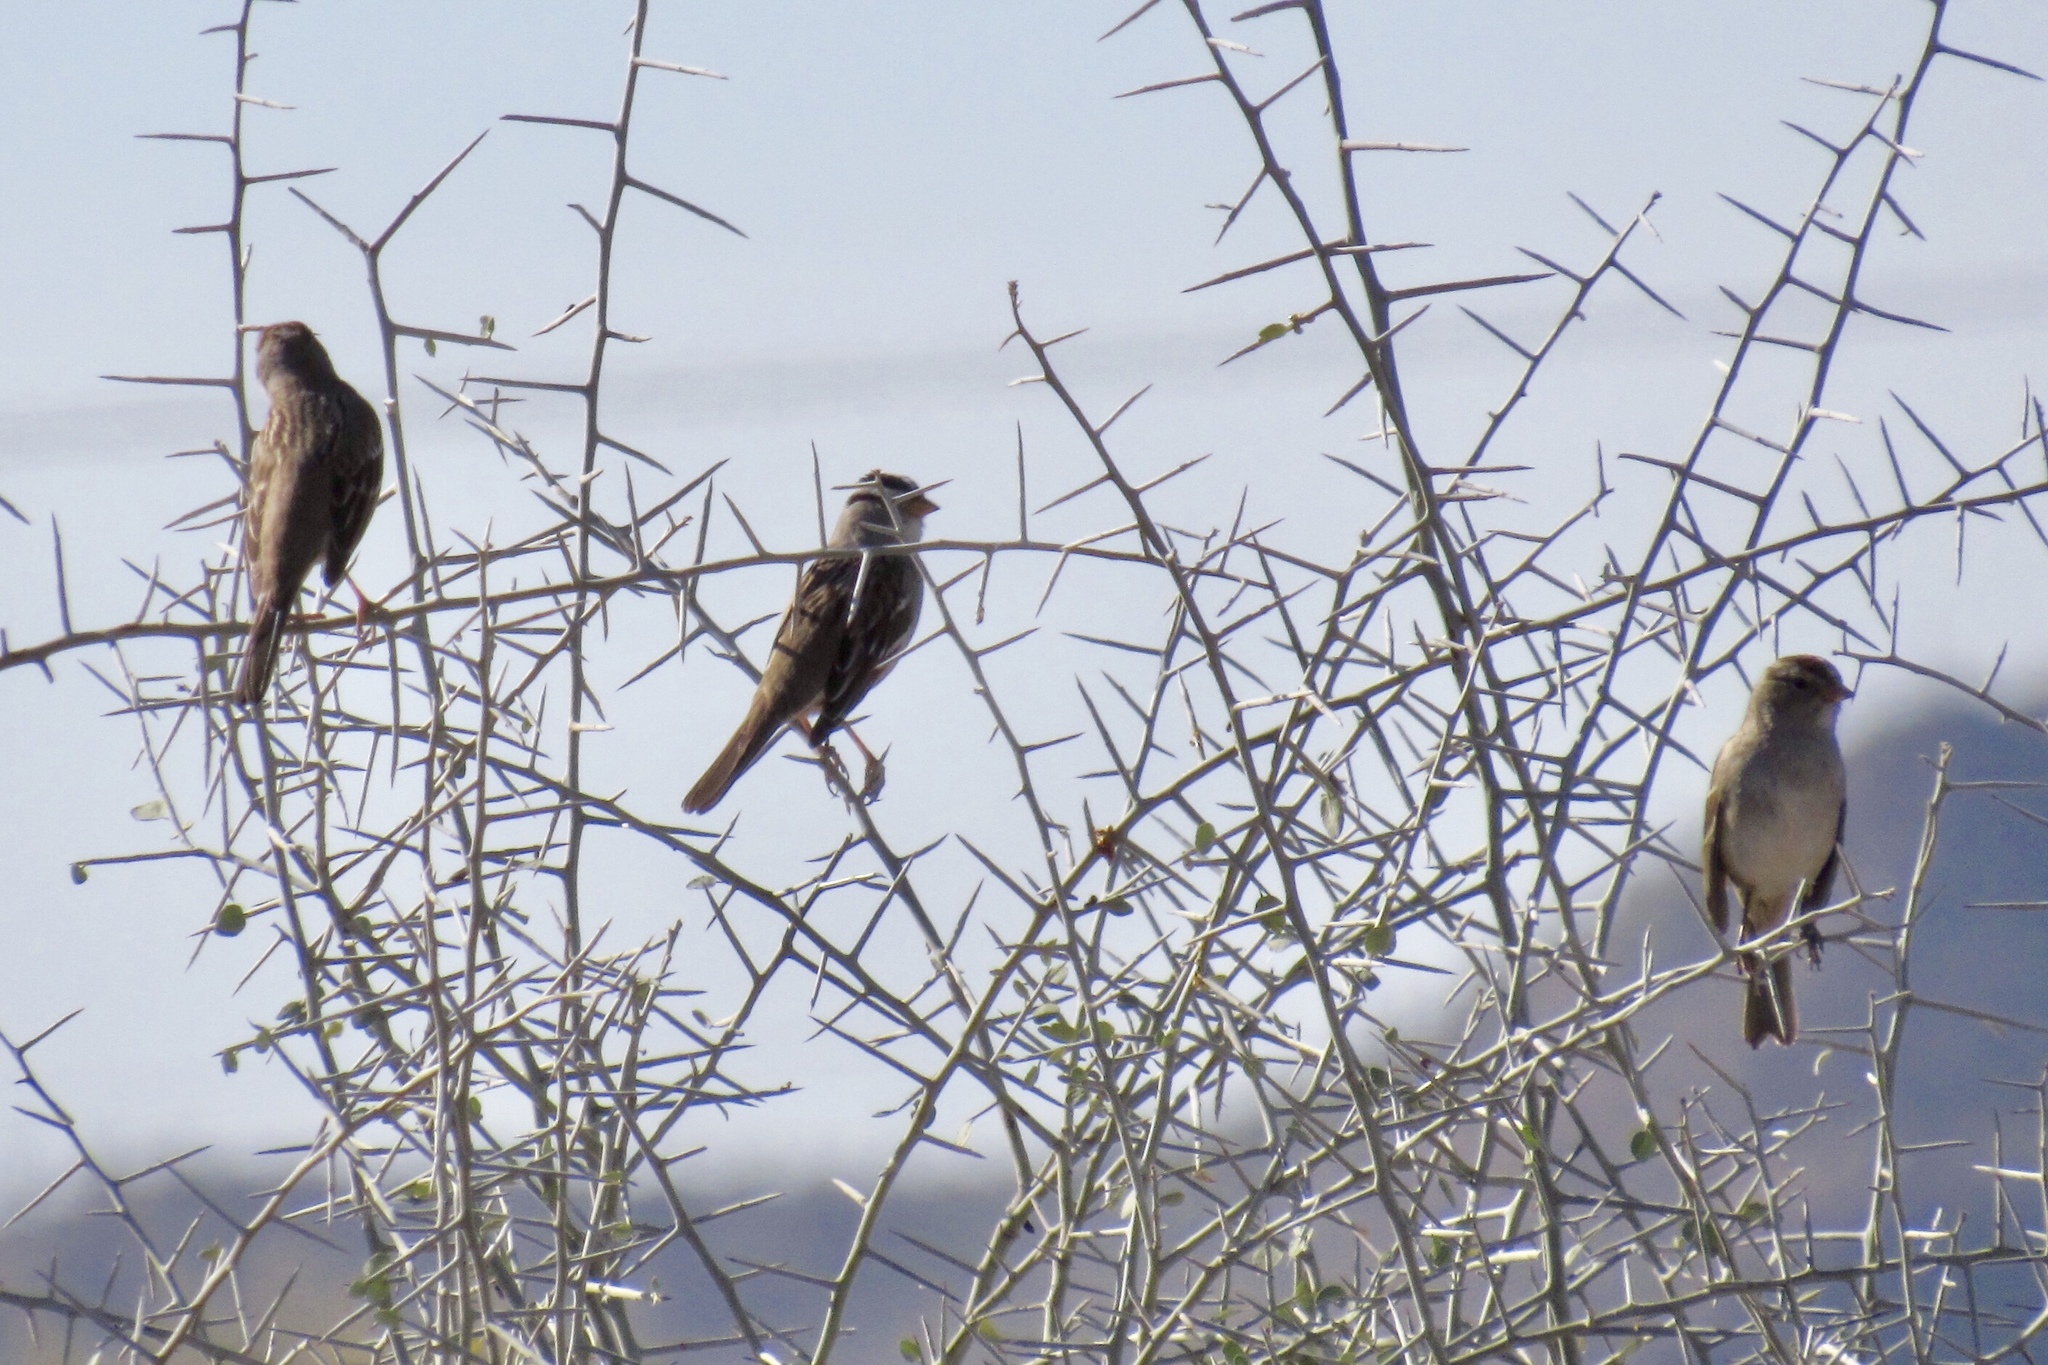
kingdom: Animalia
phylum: Chordata
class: Aves
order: Passeriformes
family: Passerellidae
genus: Zonotrichia
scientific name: Zonotrichia leucophrys
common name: White-crowned sparrow
